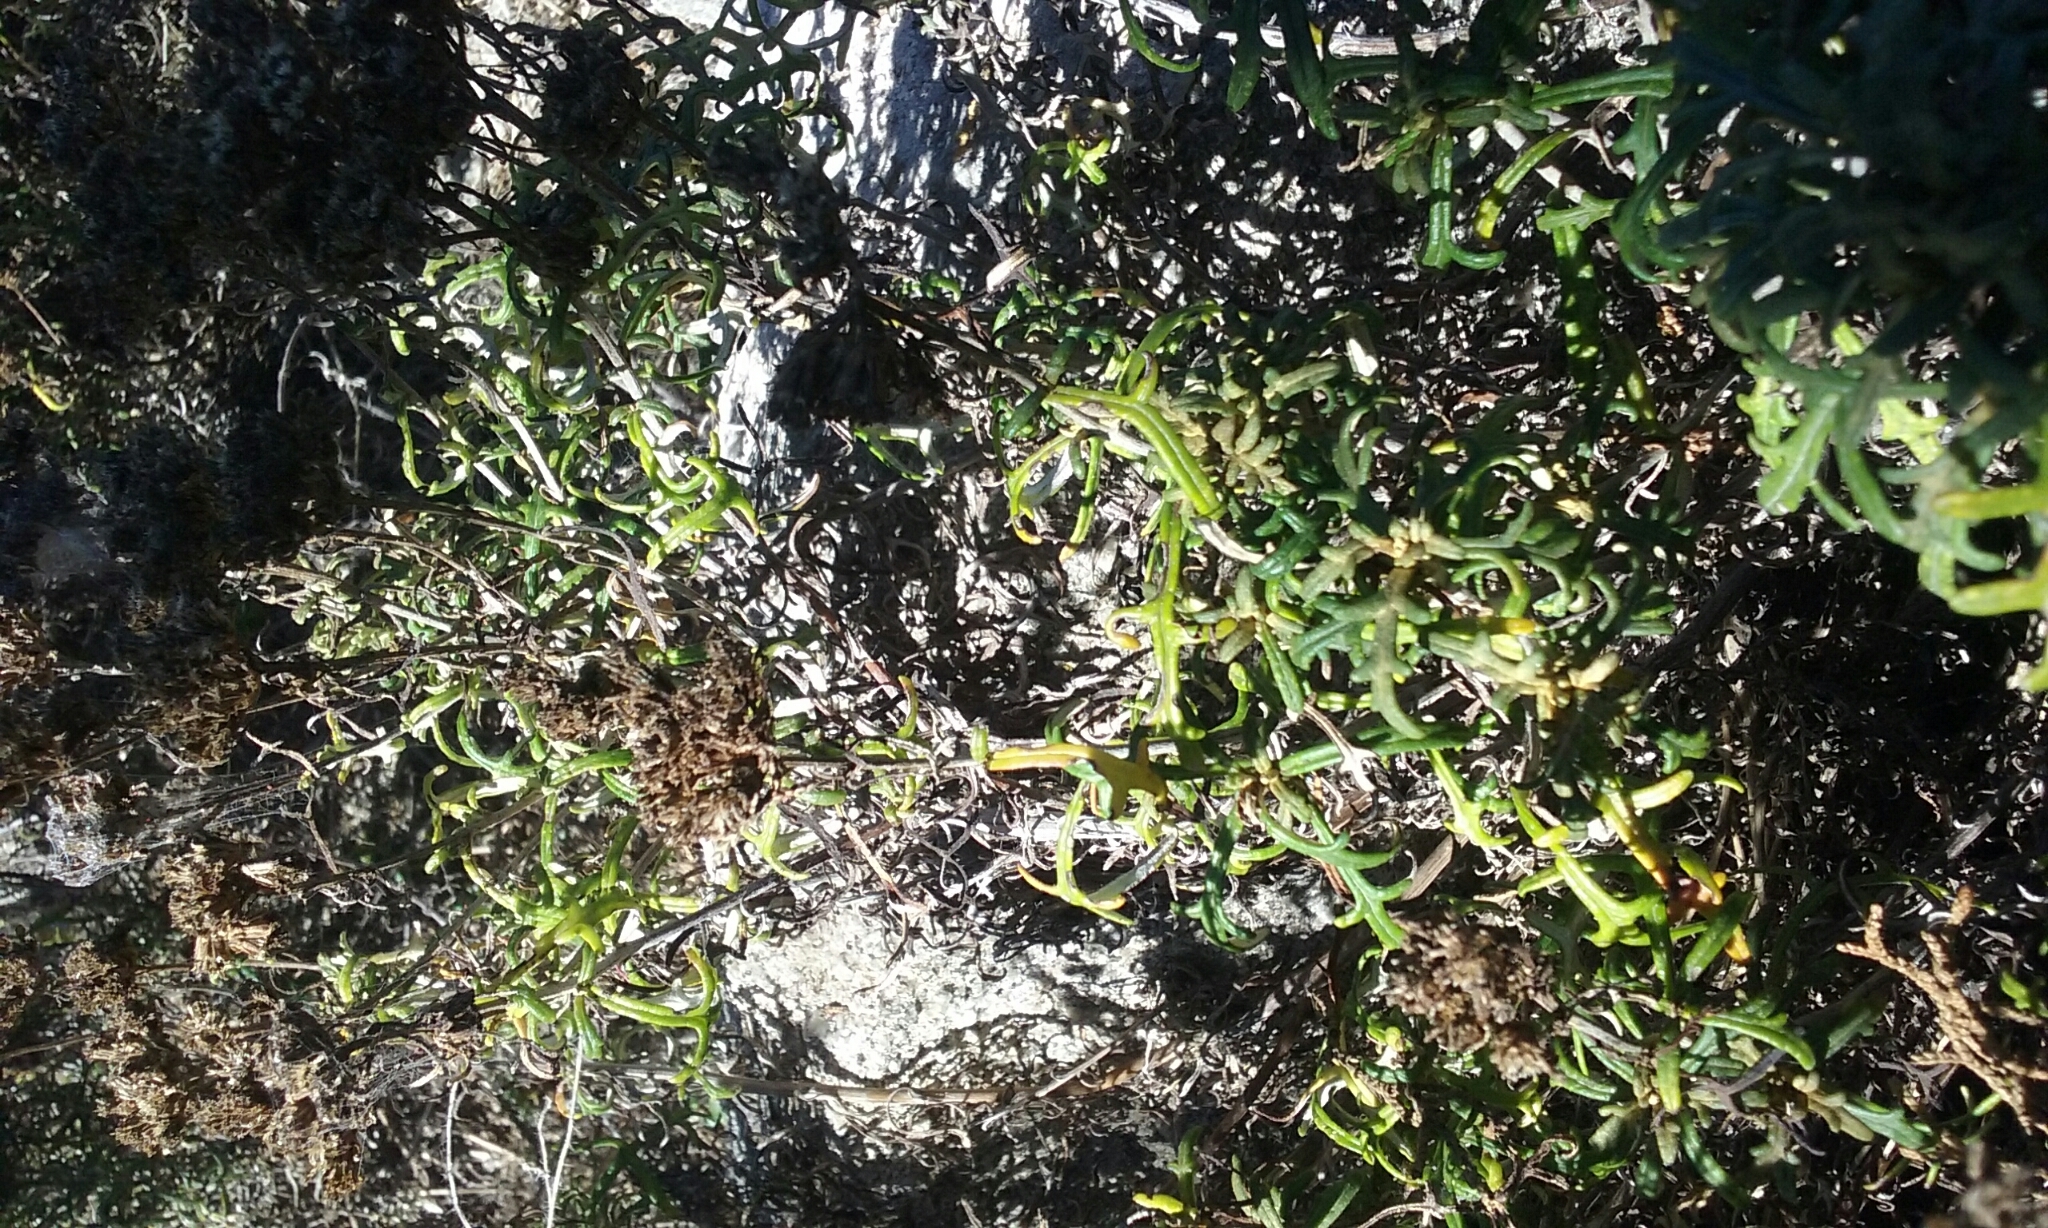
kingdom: Plantae
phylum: Tracheophyta
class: Magnoliopsida
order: Asterales
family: Asteraceae
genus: Eriophyllum
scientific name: Eriophyllum staechadifolium
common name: Lizardtail
